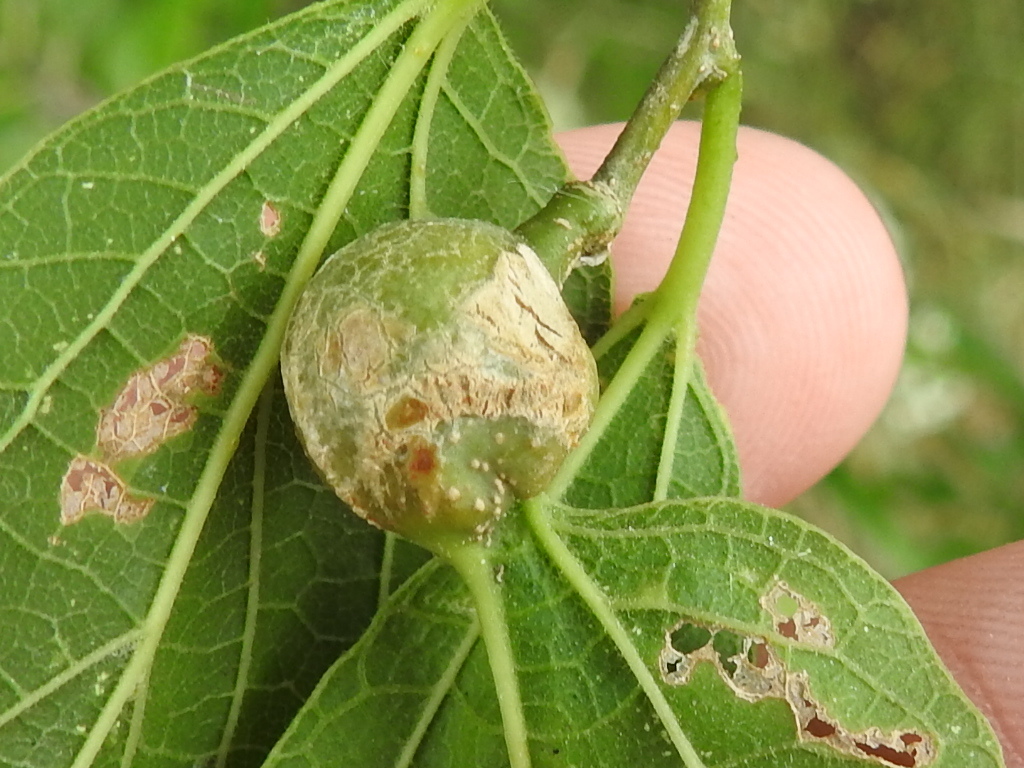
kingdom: Animalia
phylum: Arthropoda
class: Insecta
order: Hemiptera
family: Aphalaridae
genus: Pachypsylla
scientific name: Pachypsylla venusta
